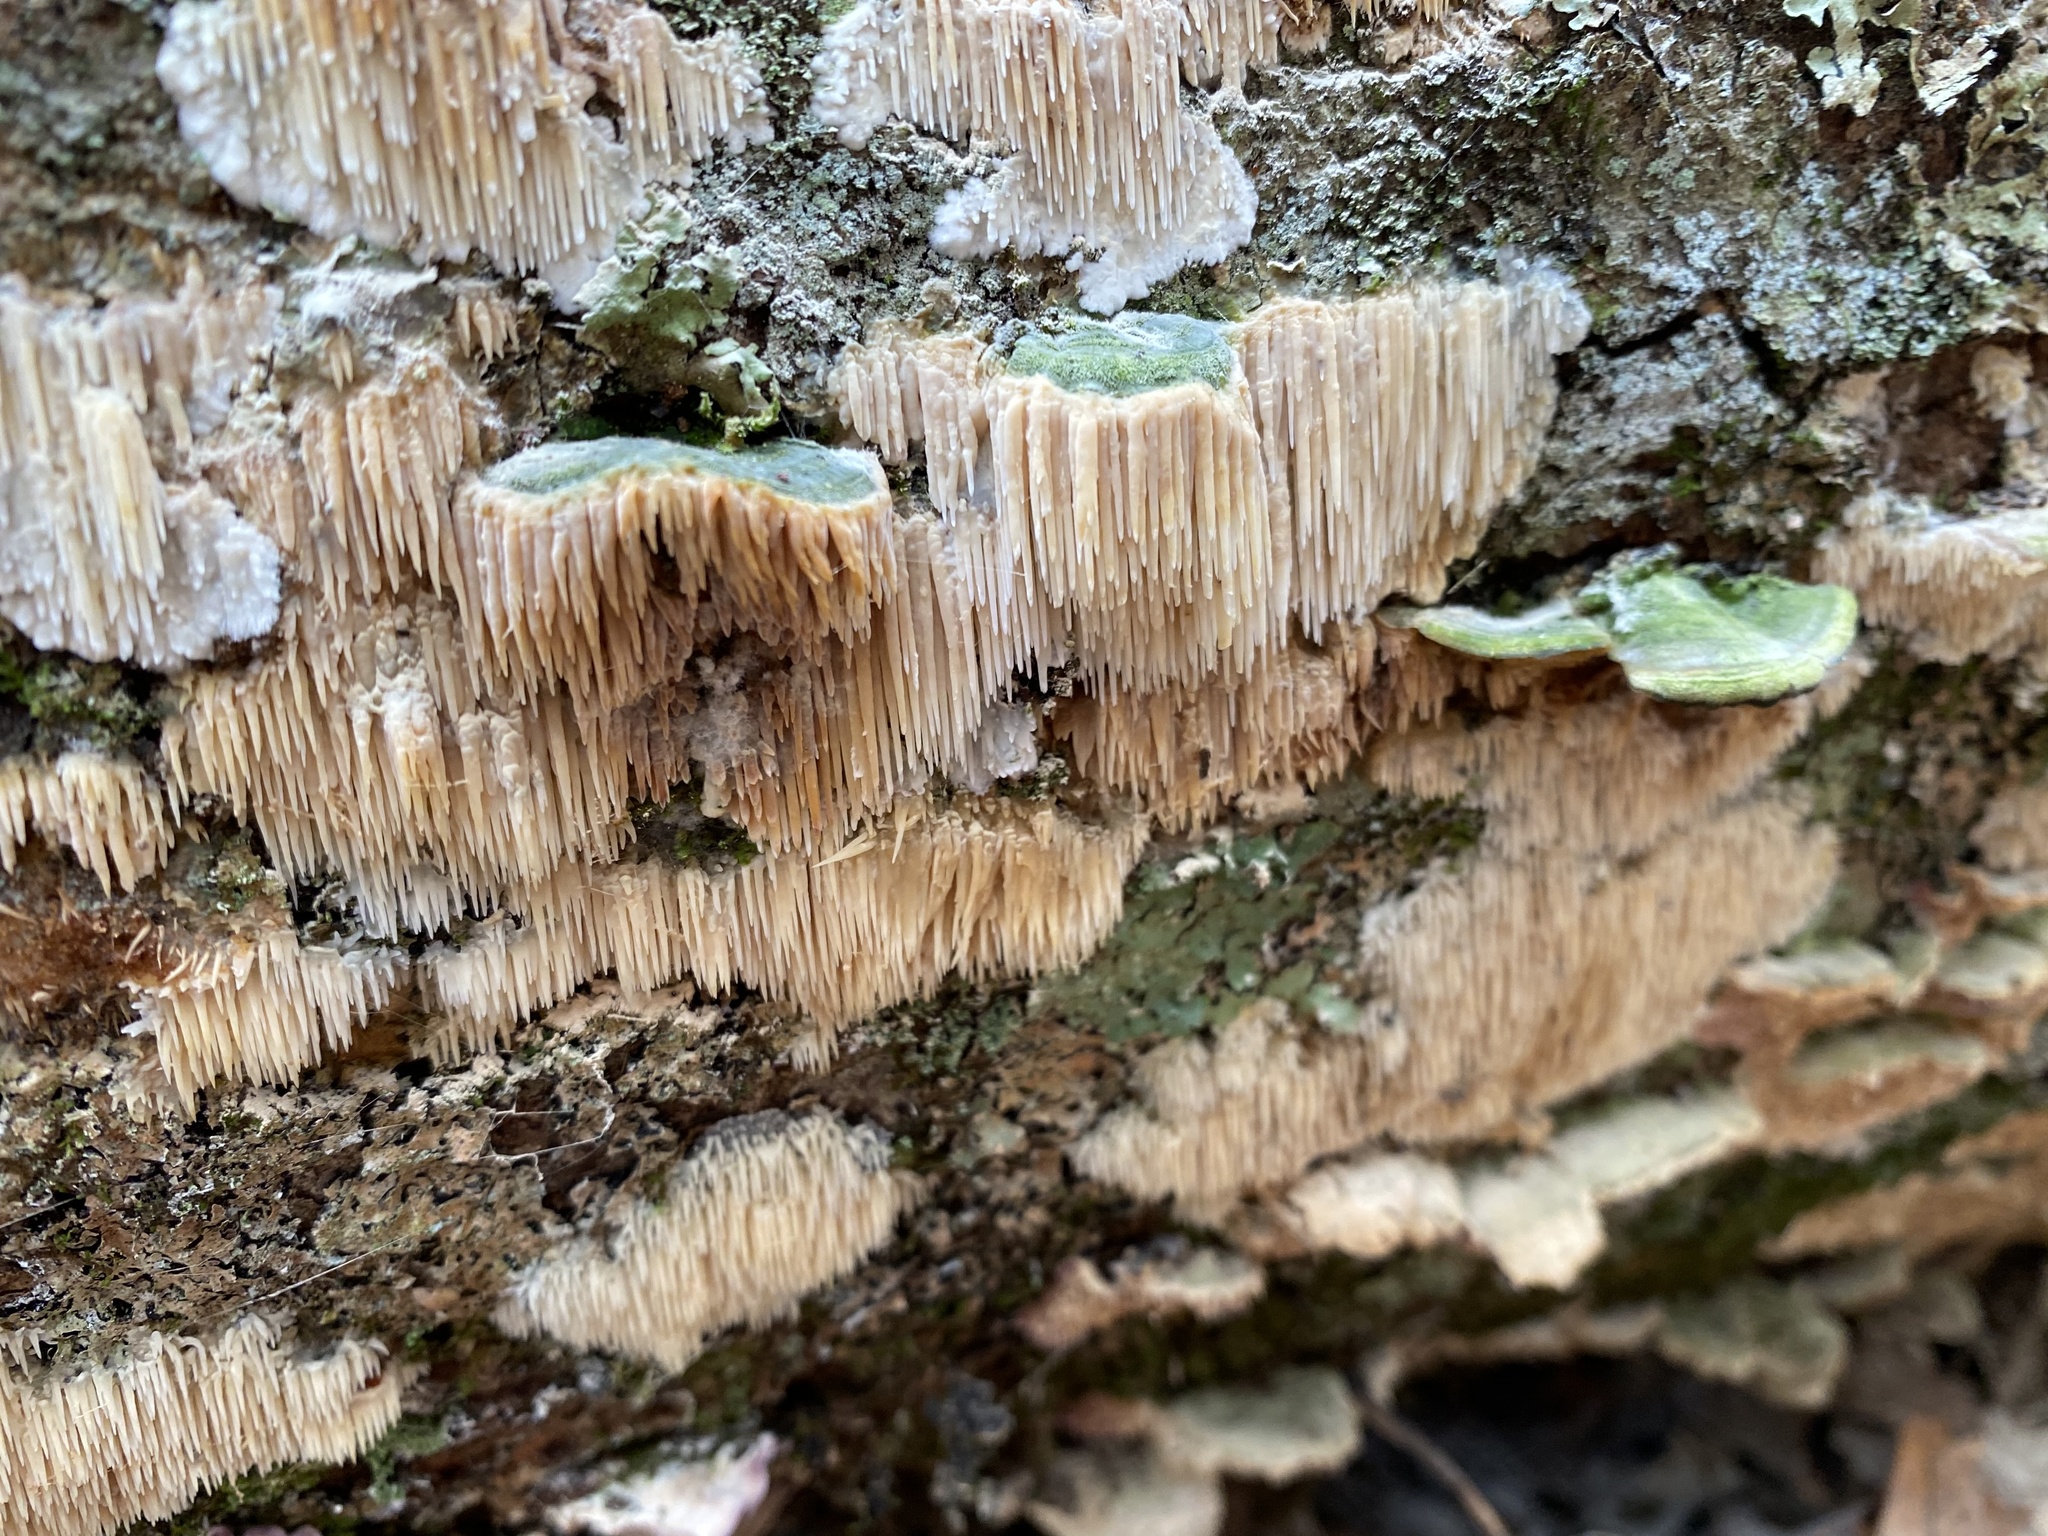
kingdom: Fungi
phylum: Basidiomycota
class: Agaricomycetes
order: Agaricales
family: Radulomycetaceae
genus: Radulomyces
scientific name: Radulomyces copelandii
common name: Asian beauty
